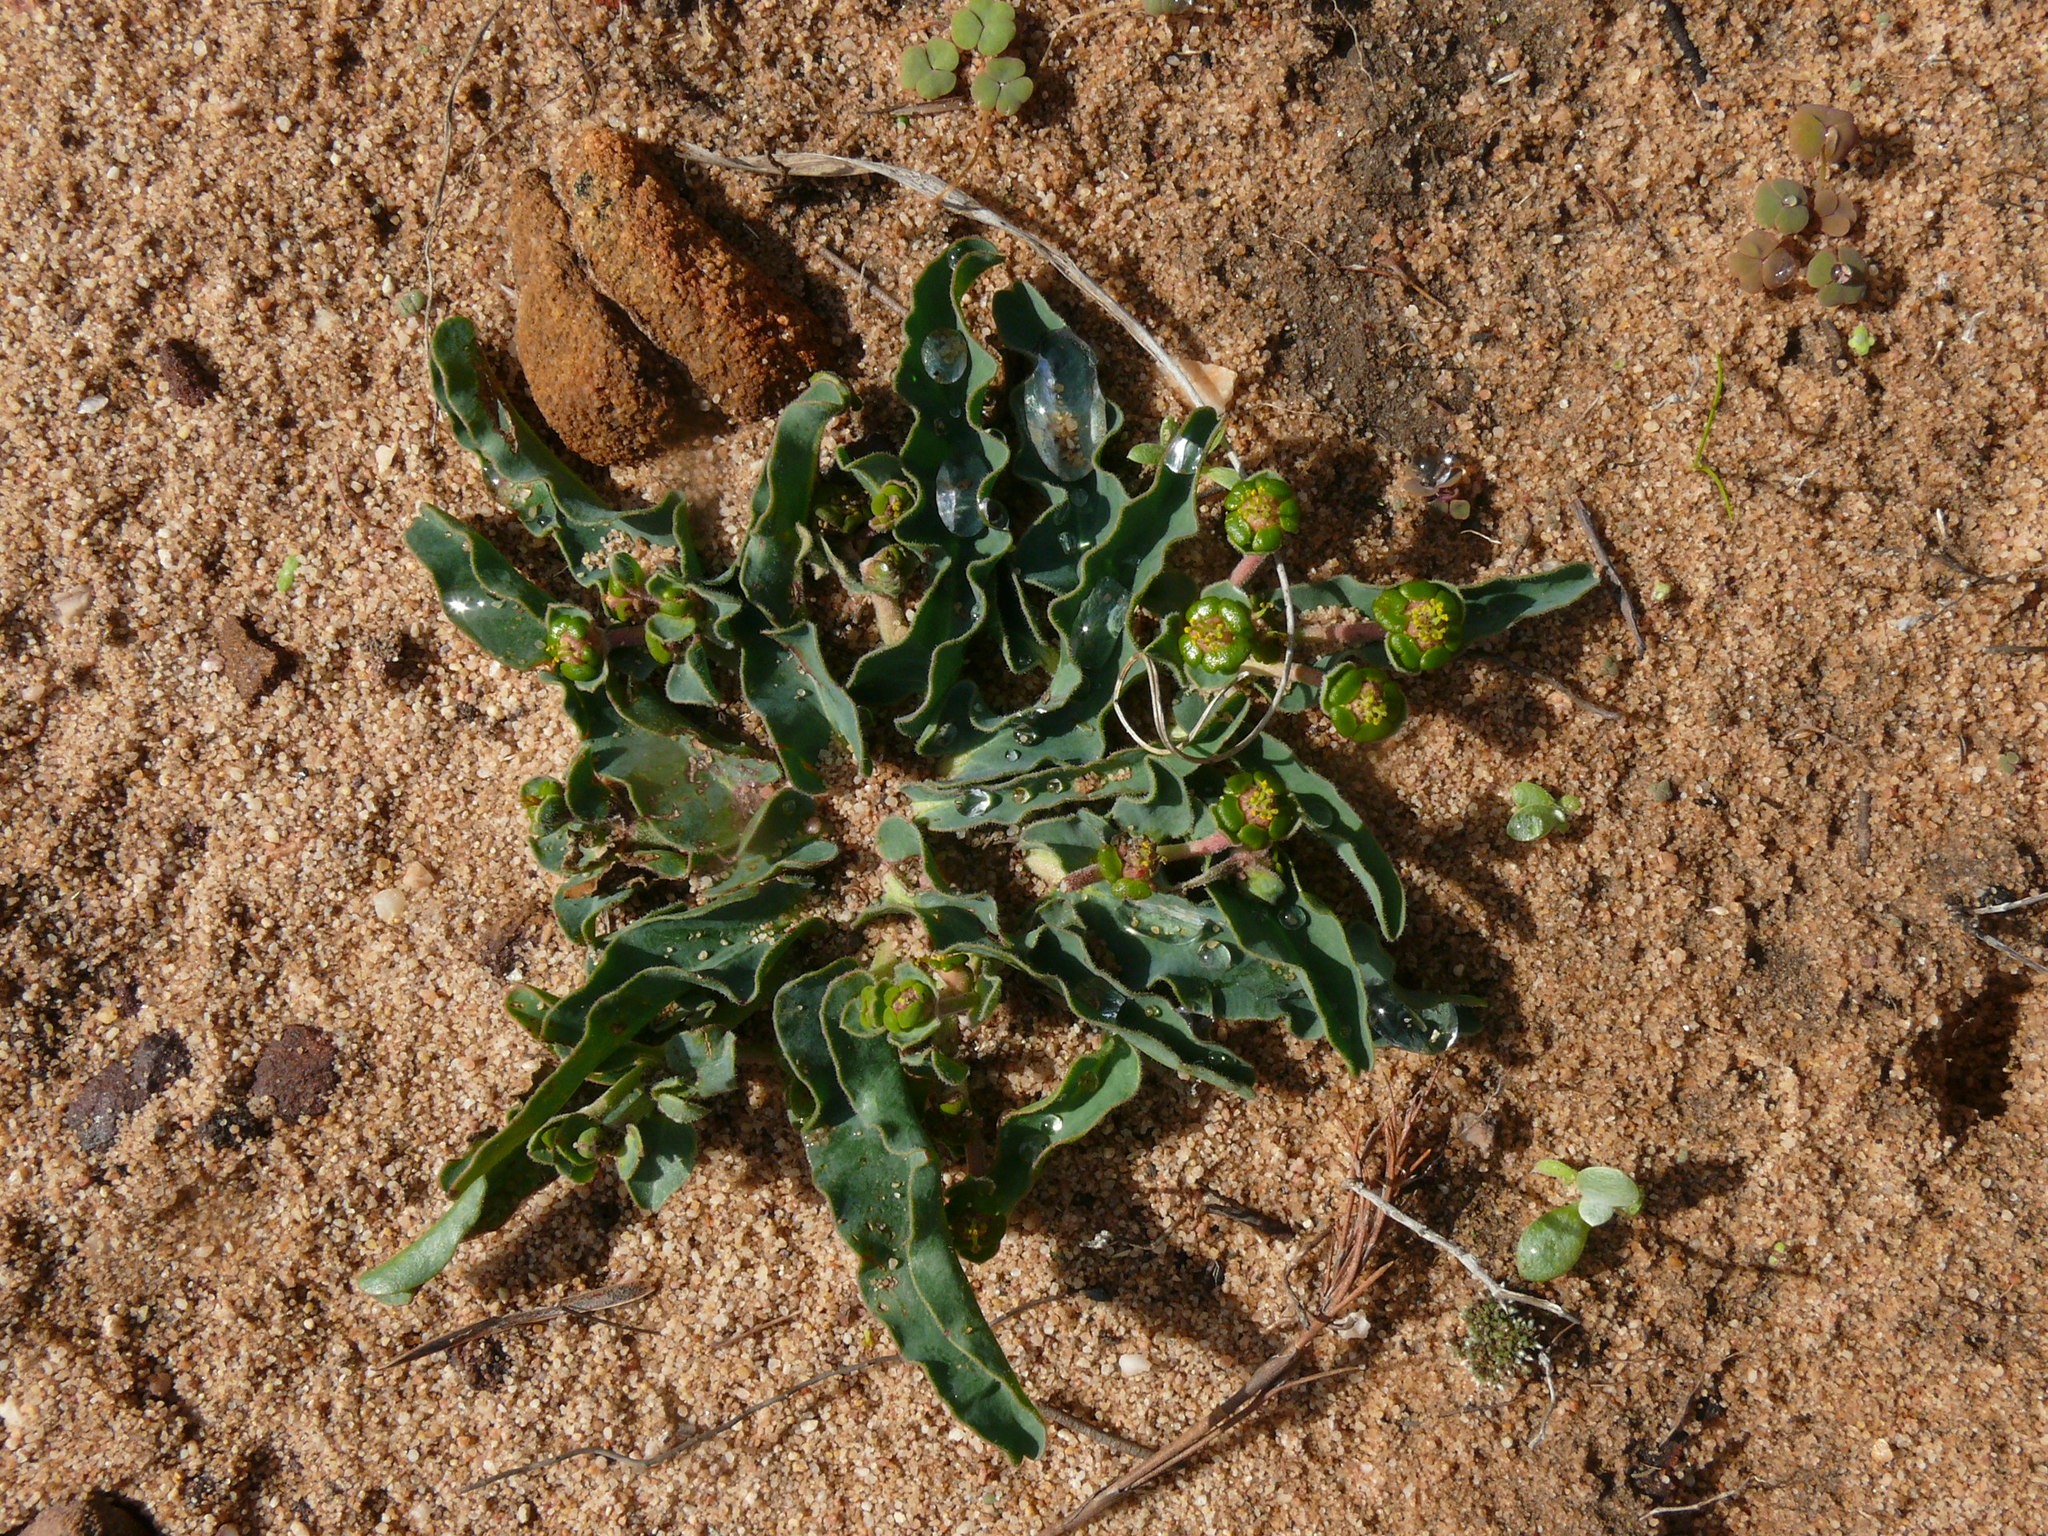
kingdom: Plantae
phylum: Tracheophyta
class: Magnoliopsida
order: Malpighiales
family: Euphorbiaceae
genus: Euphorbia
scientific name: Euphorbia tuberosa
